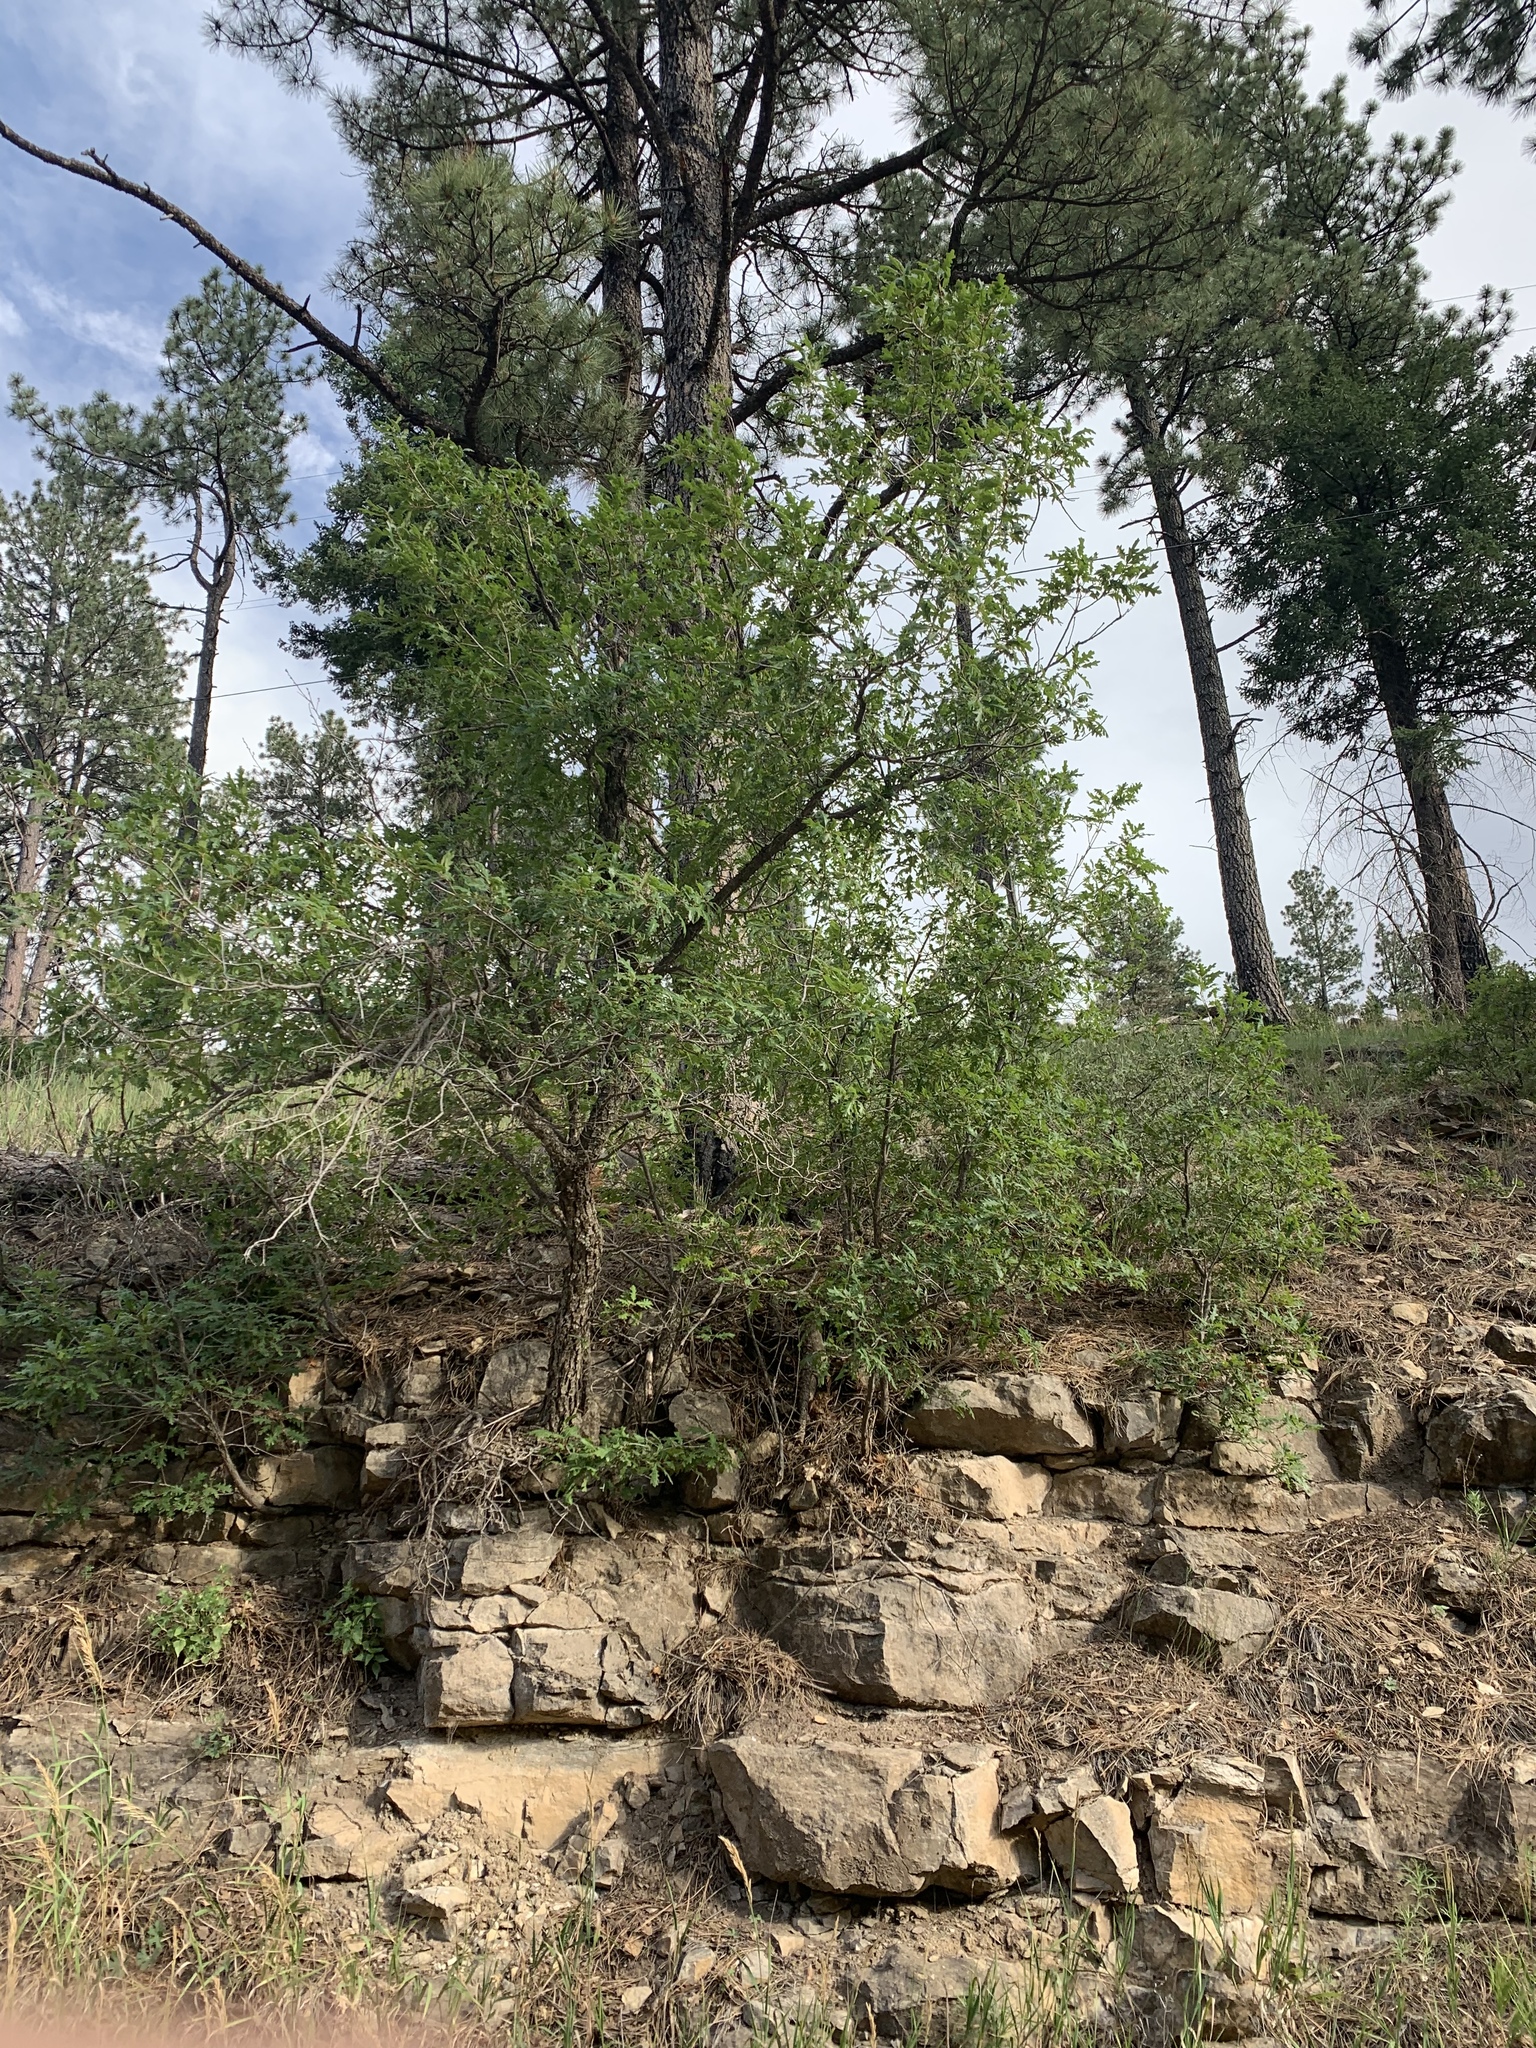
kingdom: Plantae
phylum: Tracheophyta
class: Magnoliopsida
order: Fagales
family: Fagaceae
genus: Quercus
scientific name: Quercus gambelii
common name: Gambel oak
